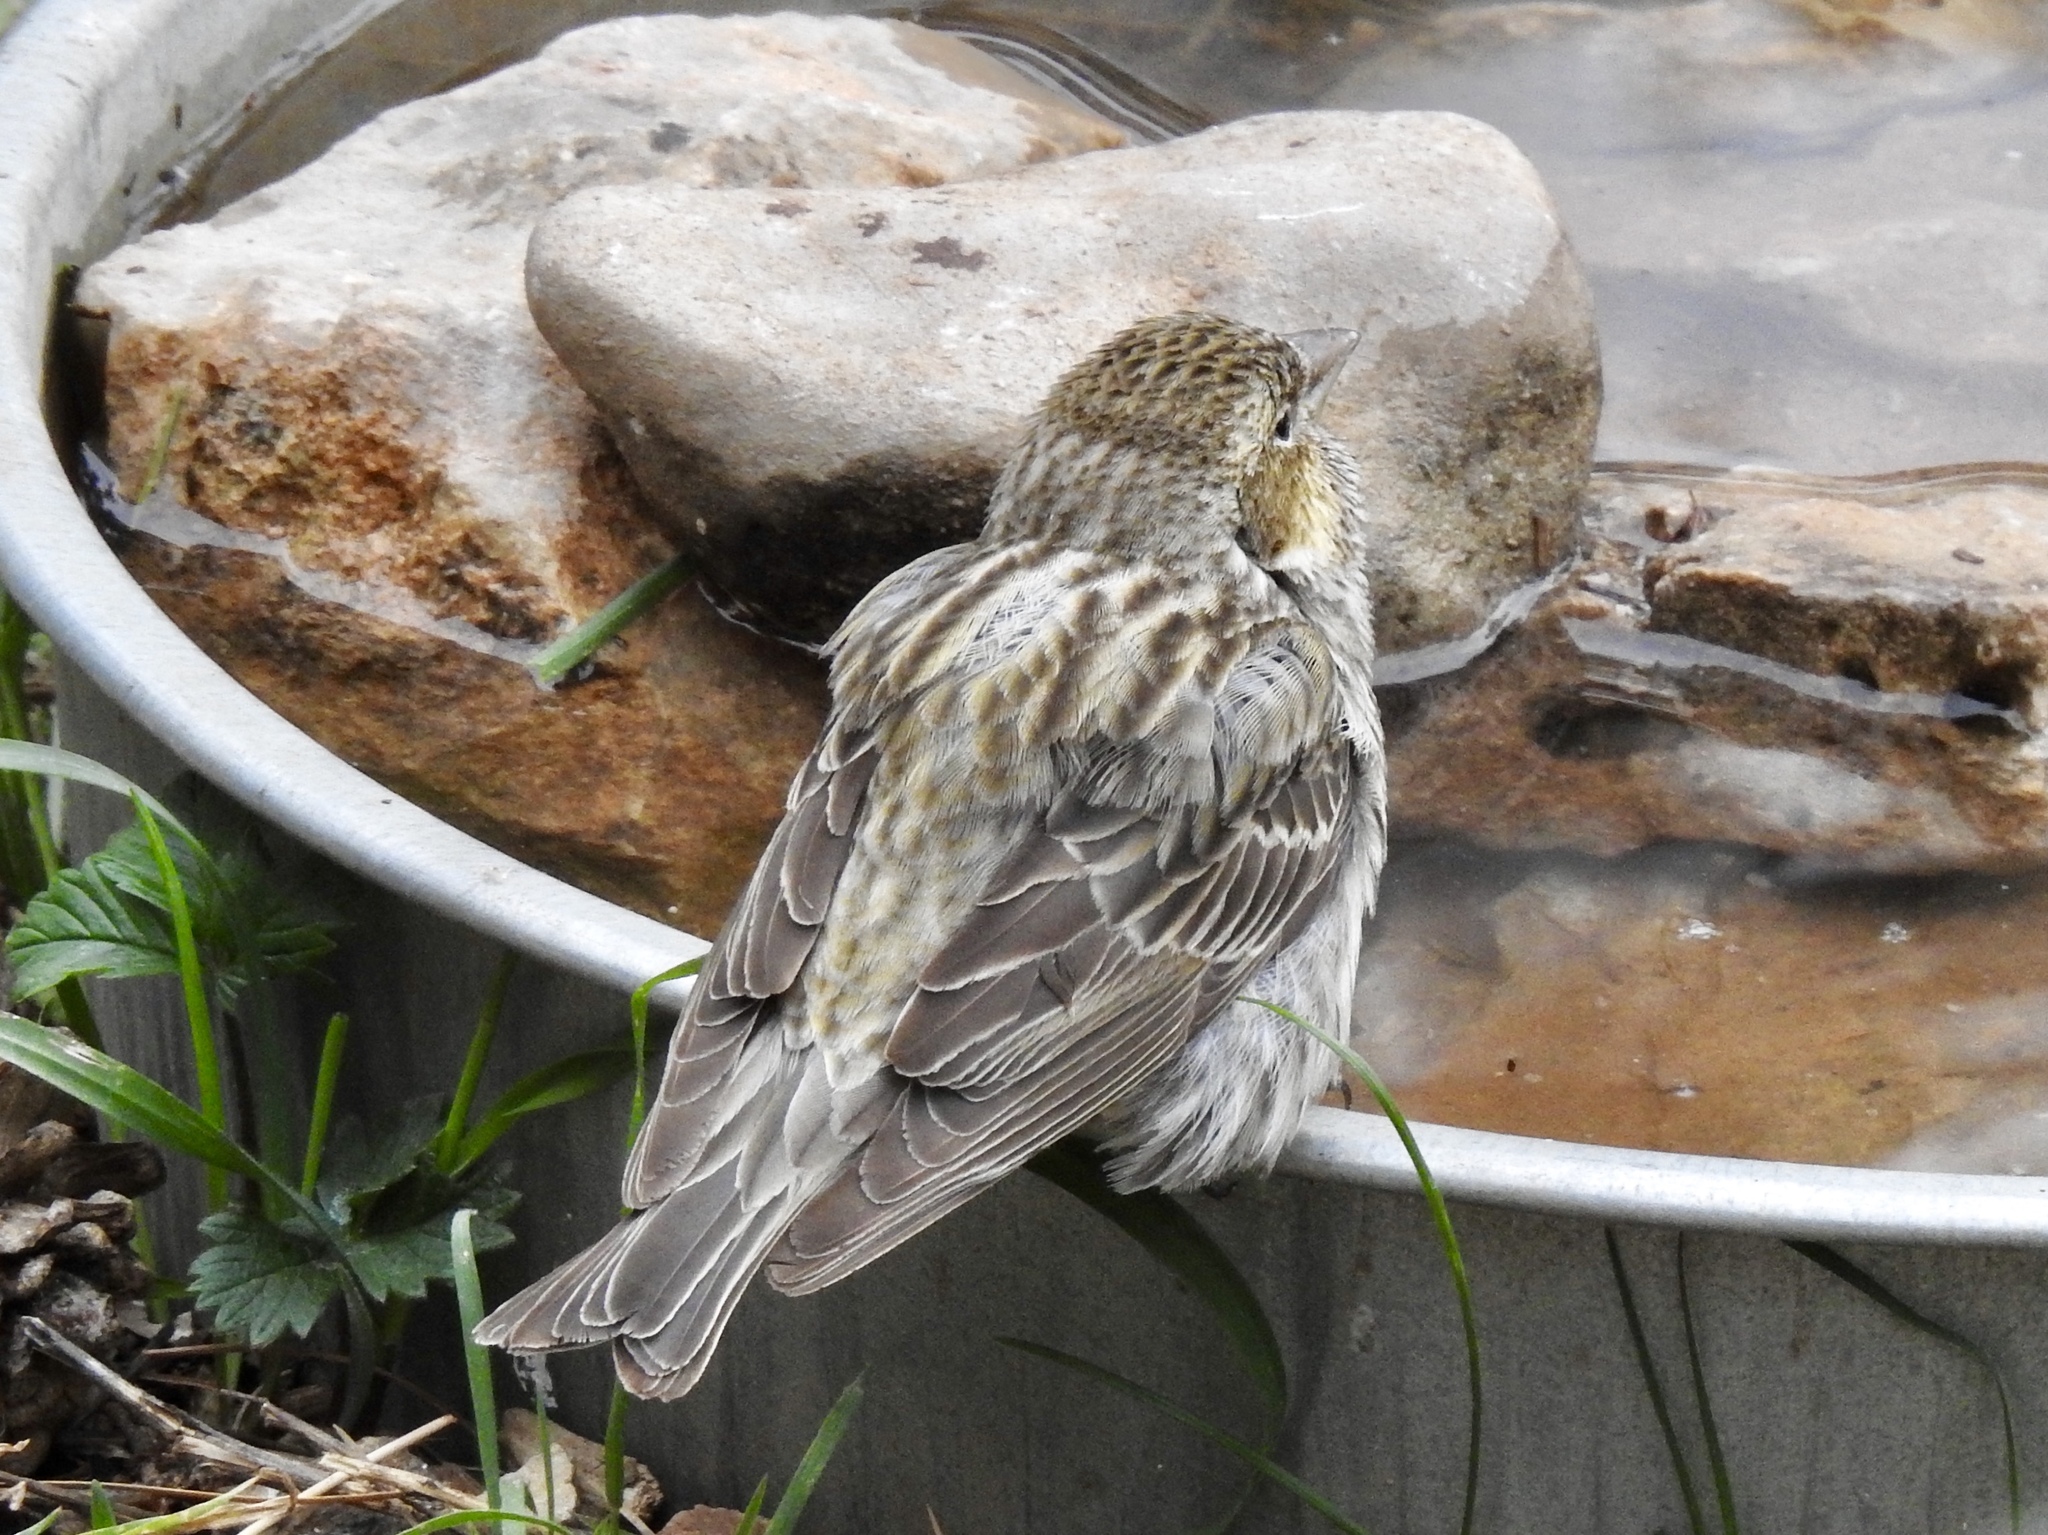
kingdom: Animalia
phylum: Chordata
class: Aves
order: Passeriformes
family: Fringillidae
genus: Haemorhous
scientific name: Haemorhous cassinii
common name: Cassin's finch
